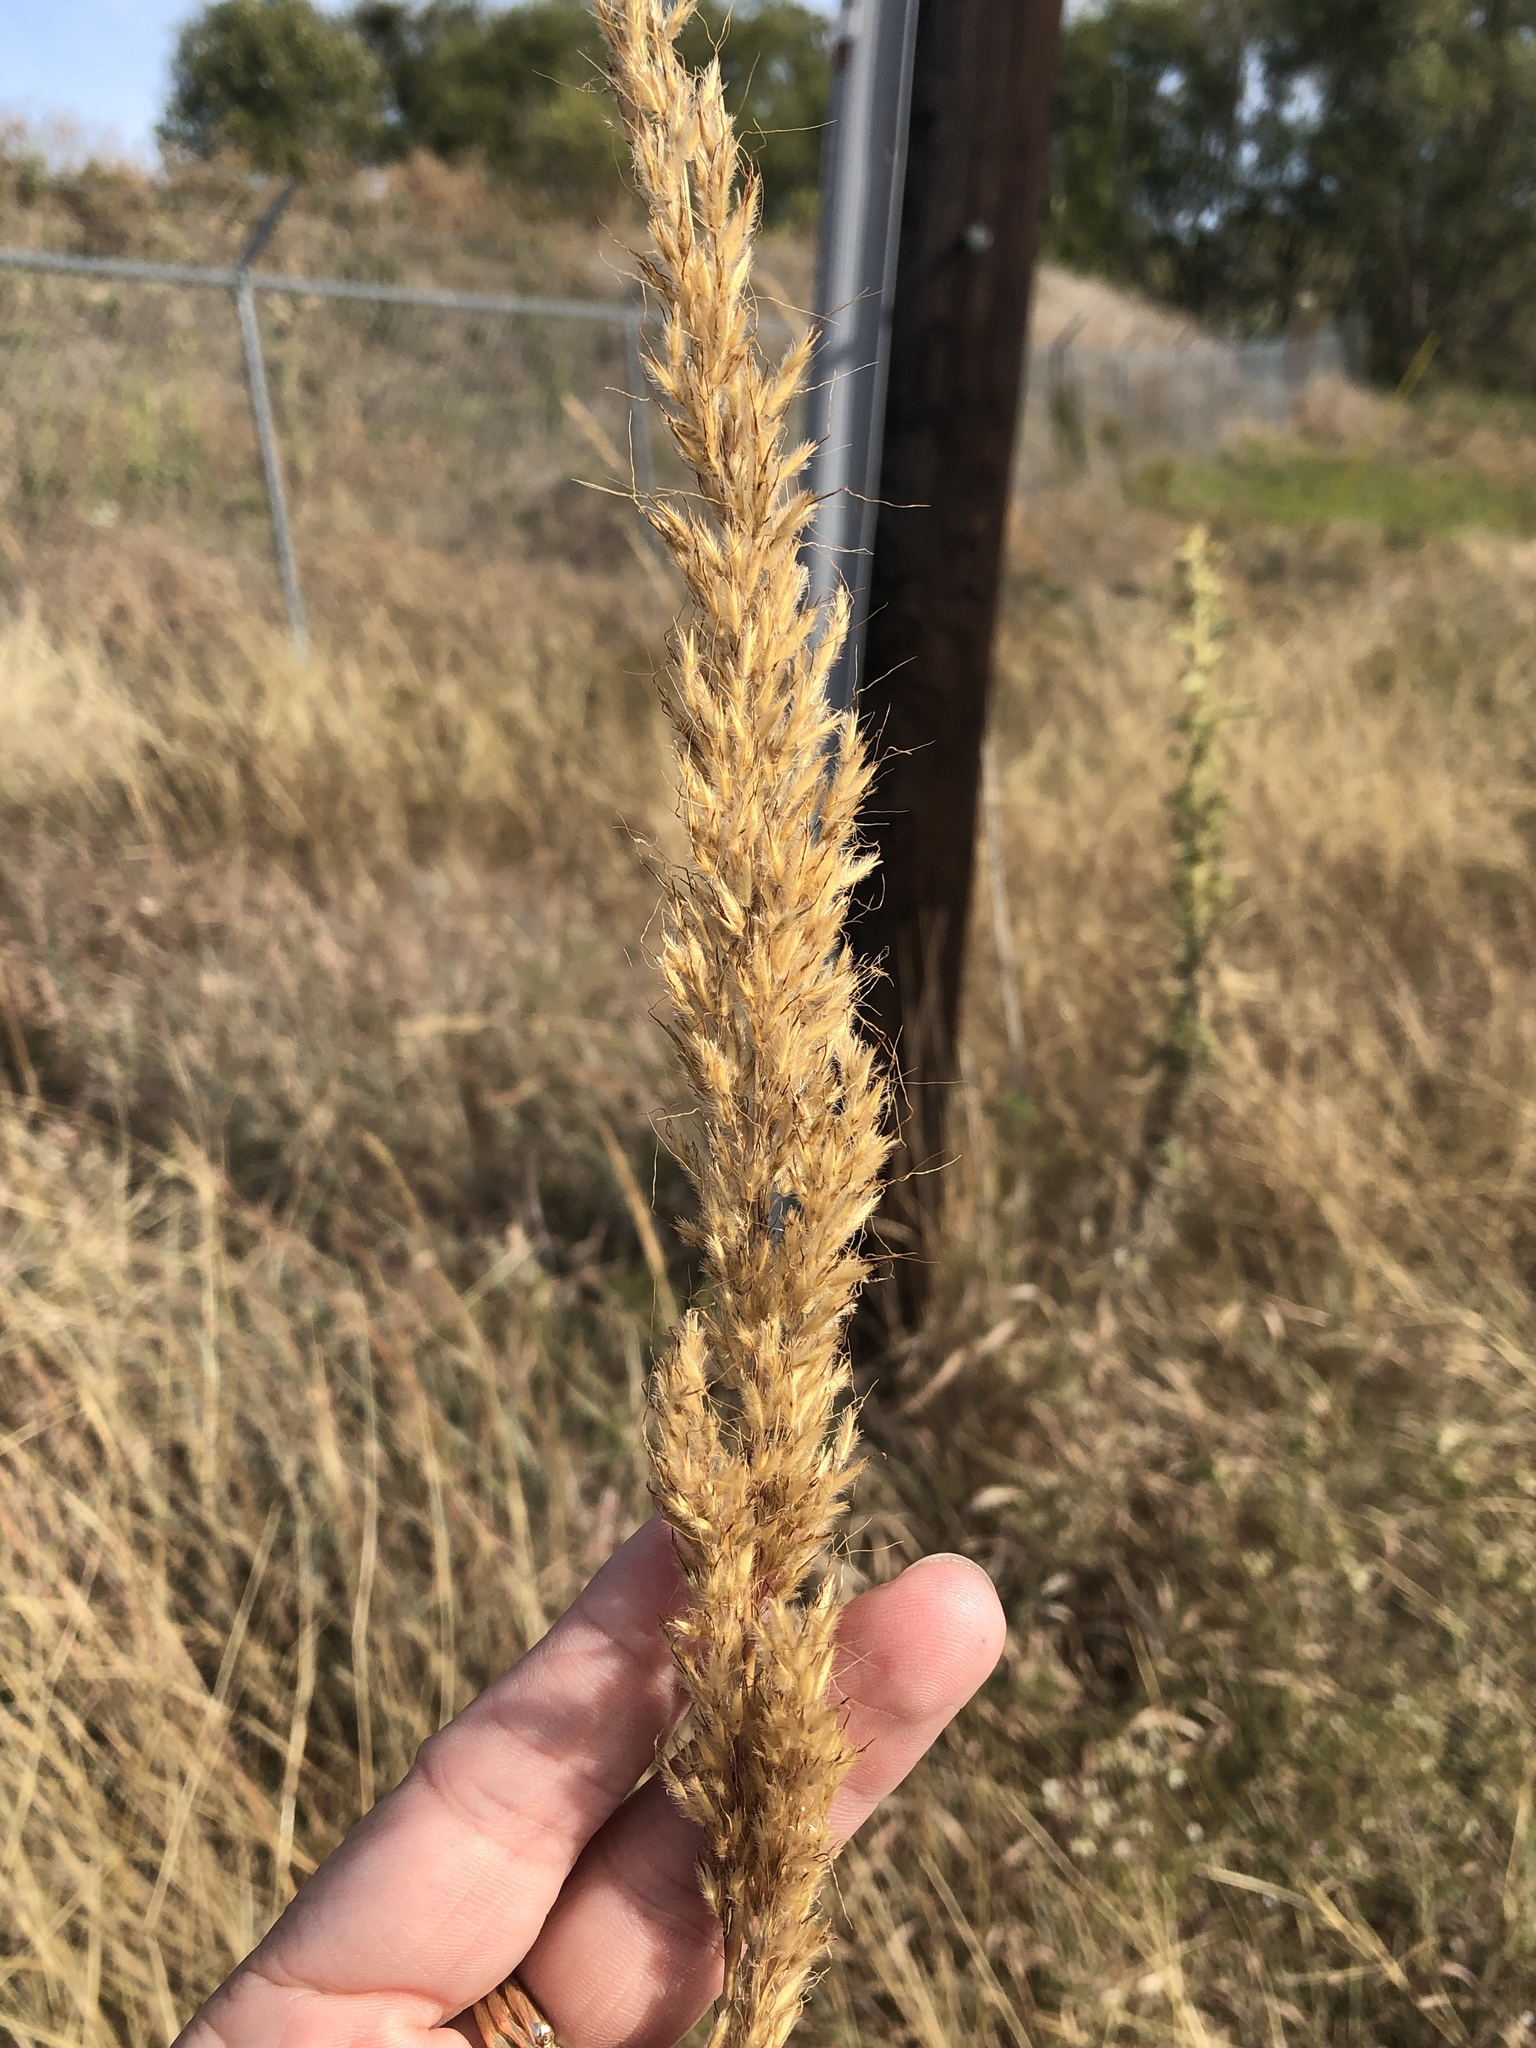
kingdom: Plantae
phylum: Tracheophyta
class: Liliopsida
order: Poales
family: Poaceae
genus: Sorghastrum
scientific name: Sorghastrum nutans
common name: Indian grass
